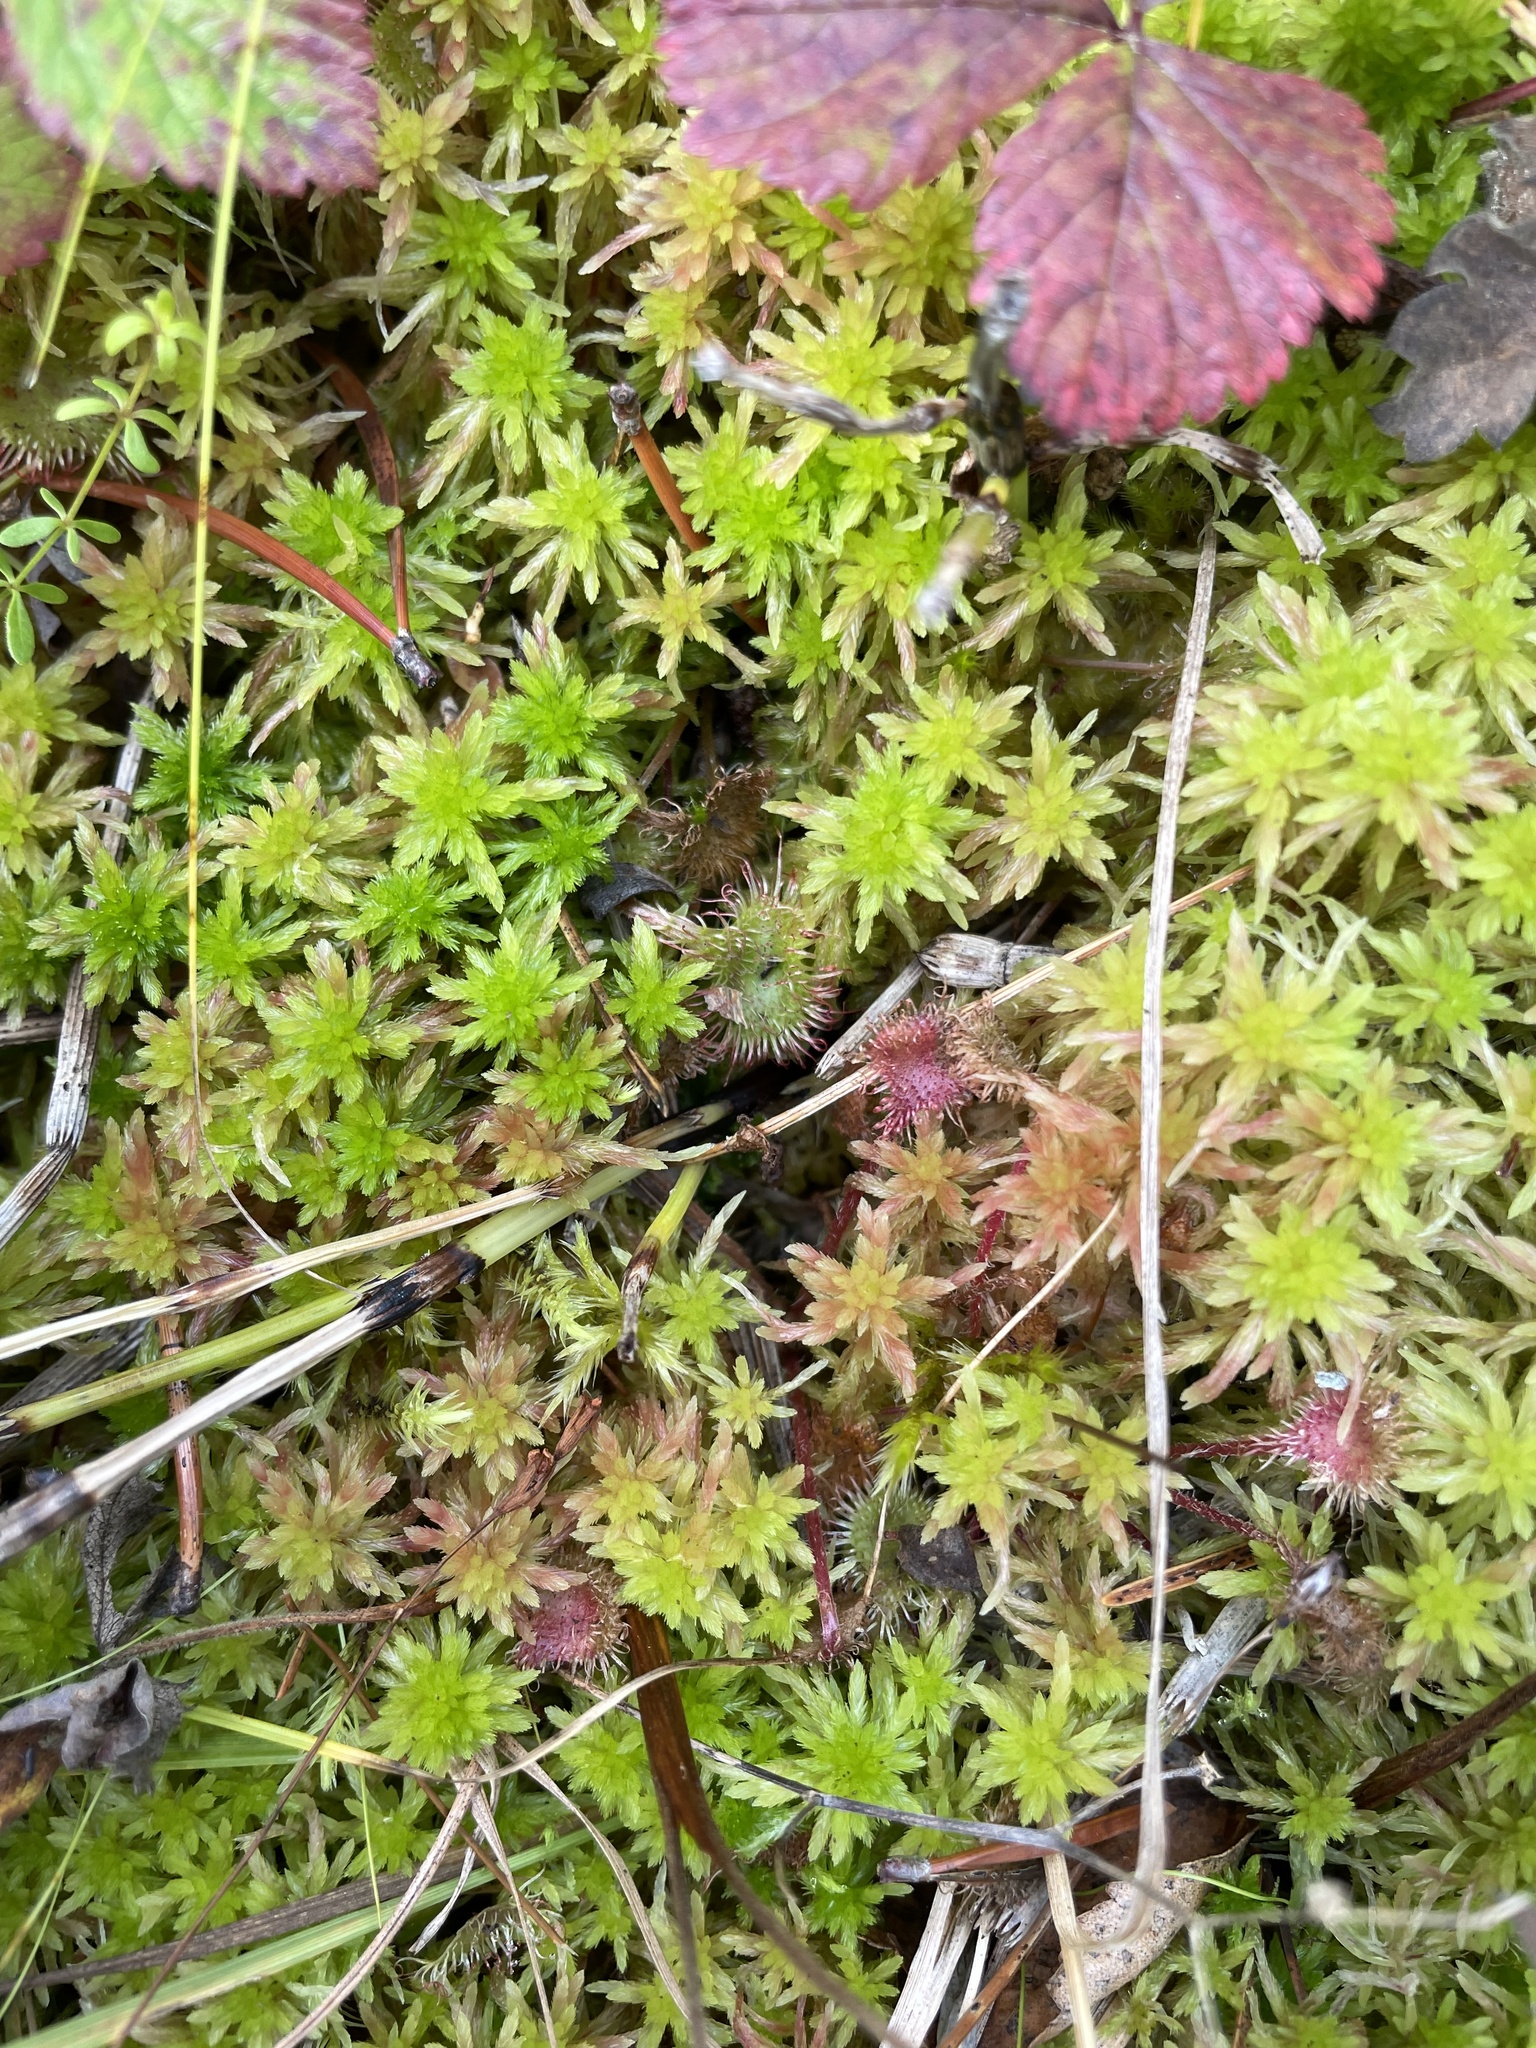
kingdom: Plantae
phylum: Tracheophyta
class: Magnoliopsida
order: Caryophyllales
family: Droseraceae
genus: Drosera
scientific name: Drosera rotundifolia
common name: Round-leaved sundew
